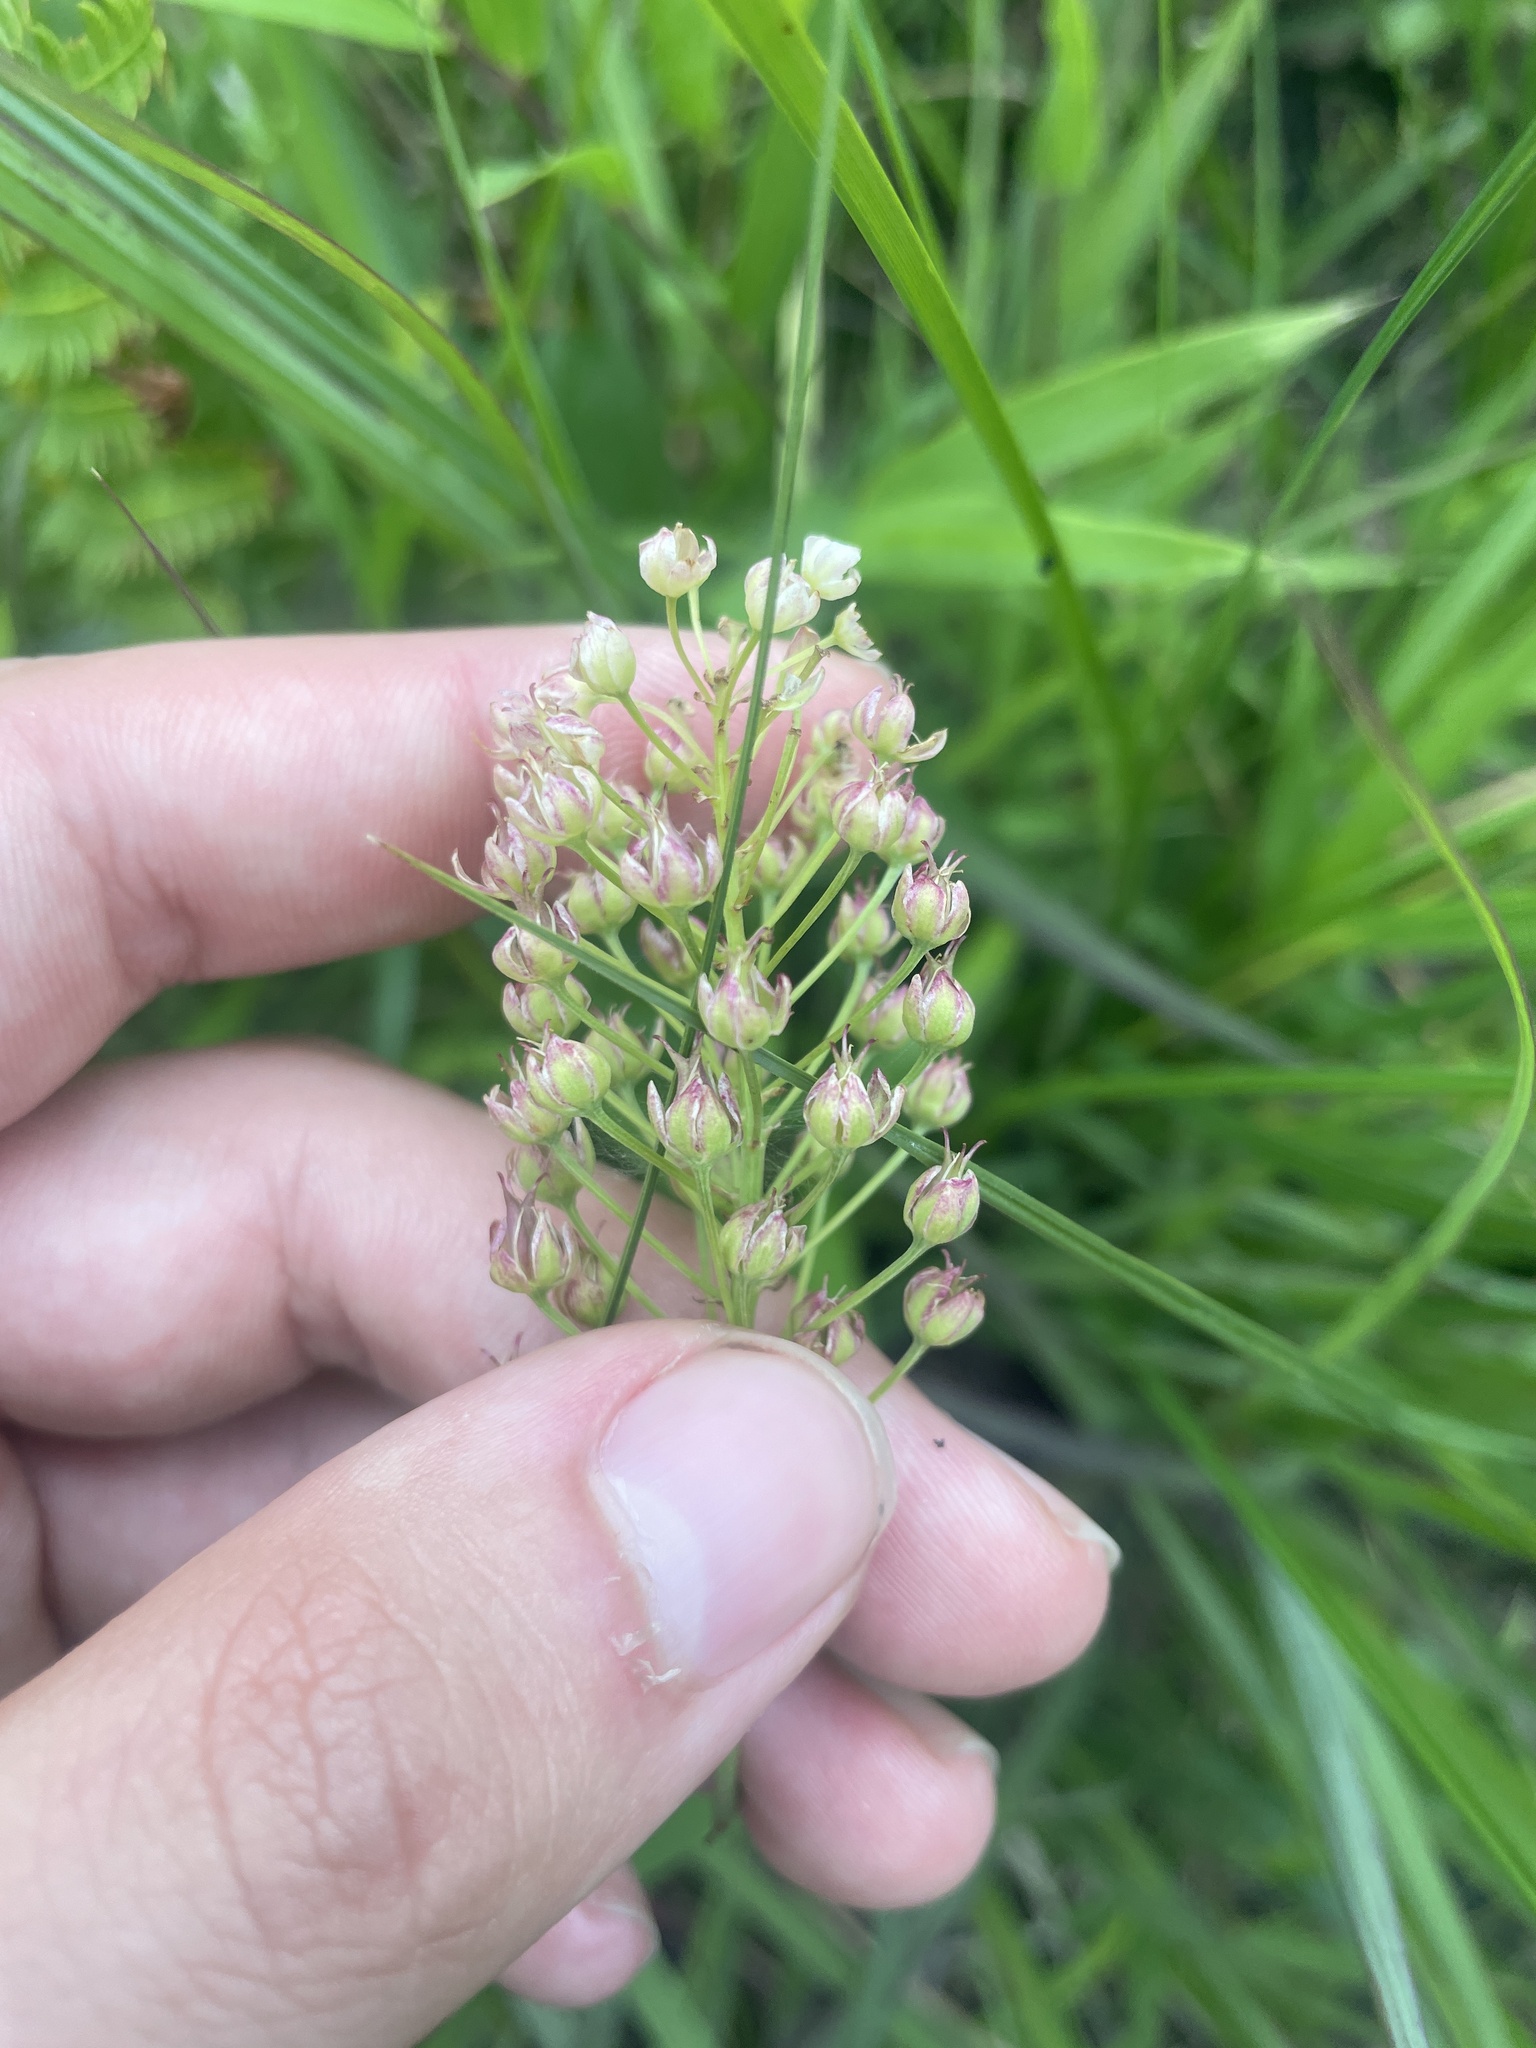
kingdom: Plantae
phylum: Tracheophyta
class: Liliopsida
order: Liliales
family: Melanthiaceae
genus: Stenanthium
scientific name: Stenanthium densum
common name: Crow-poison
